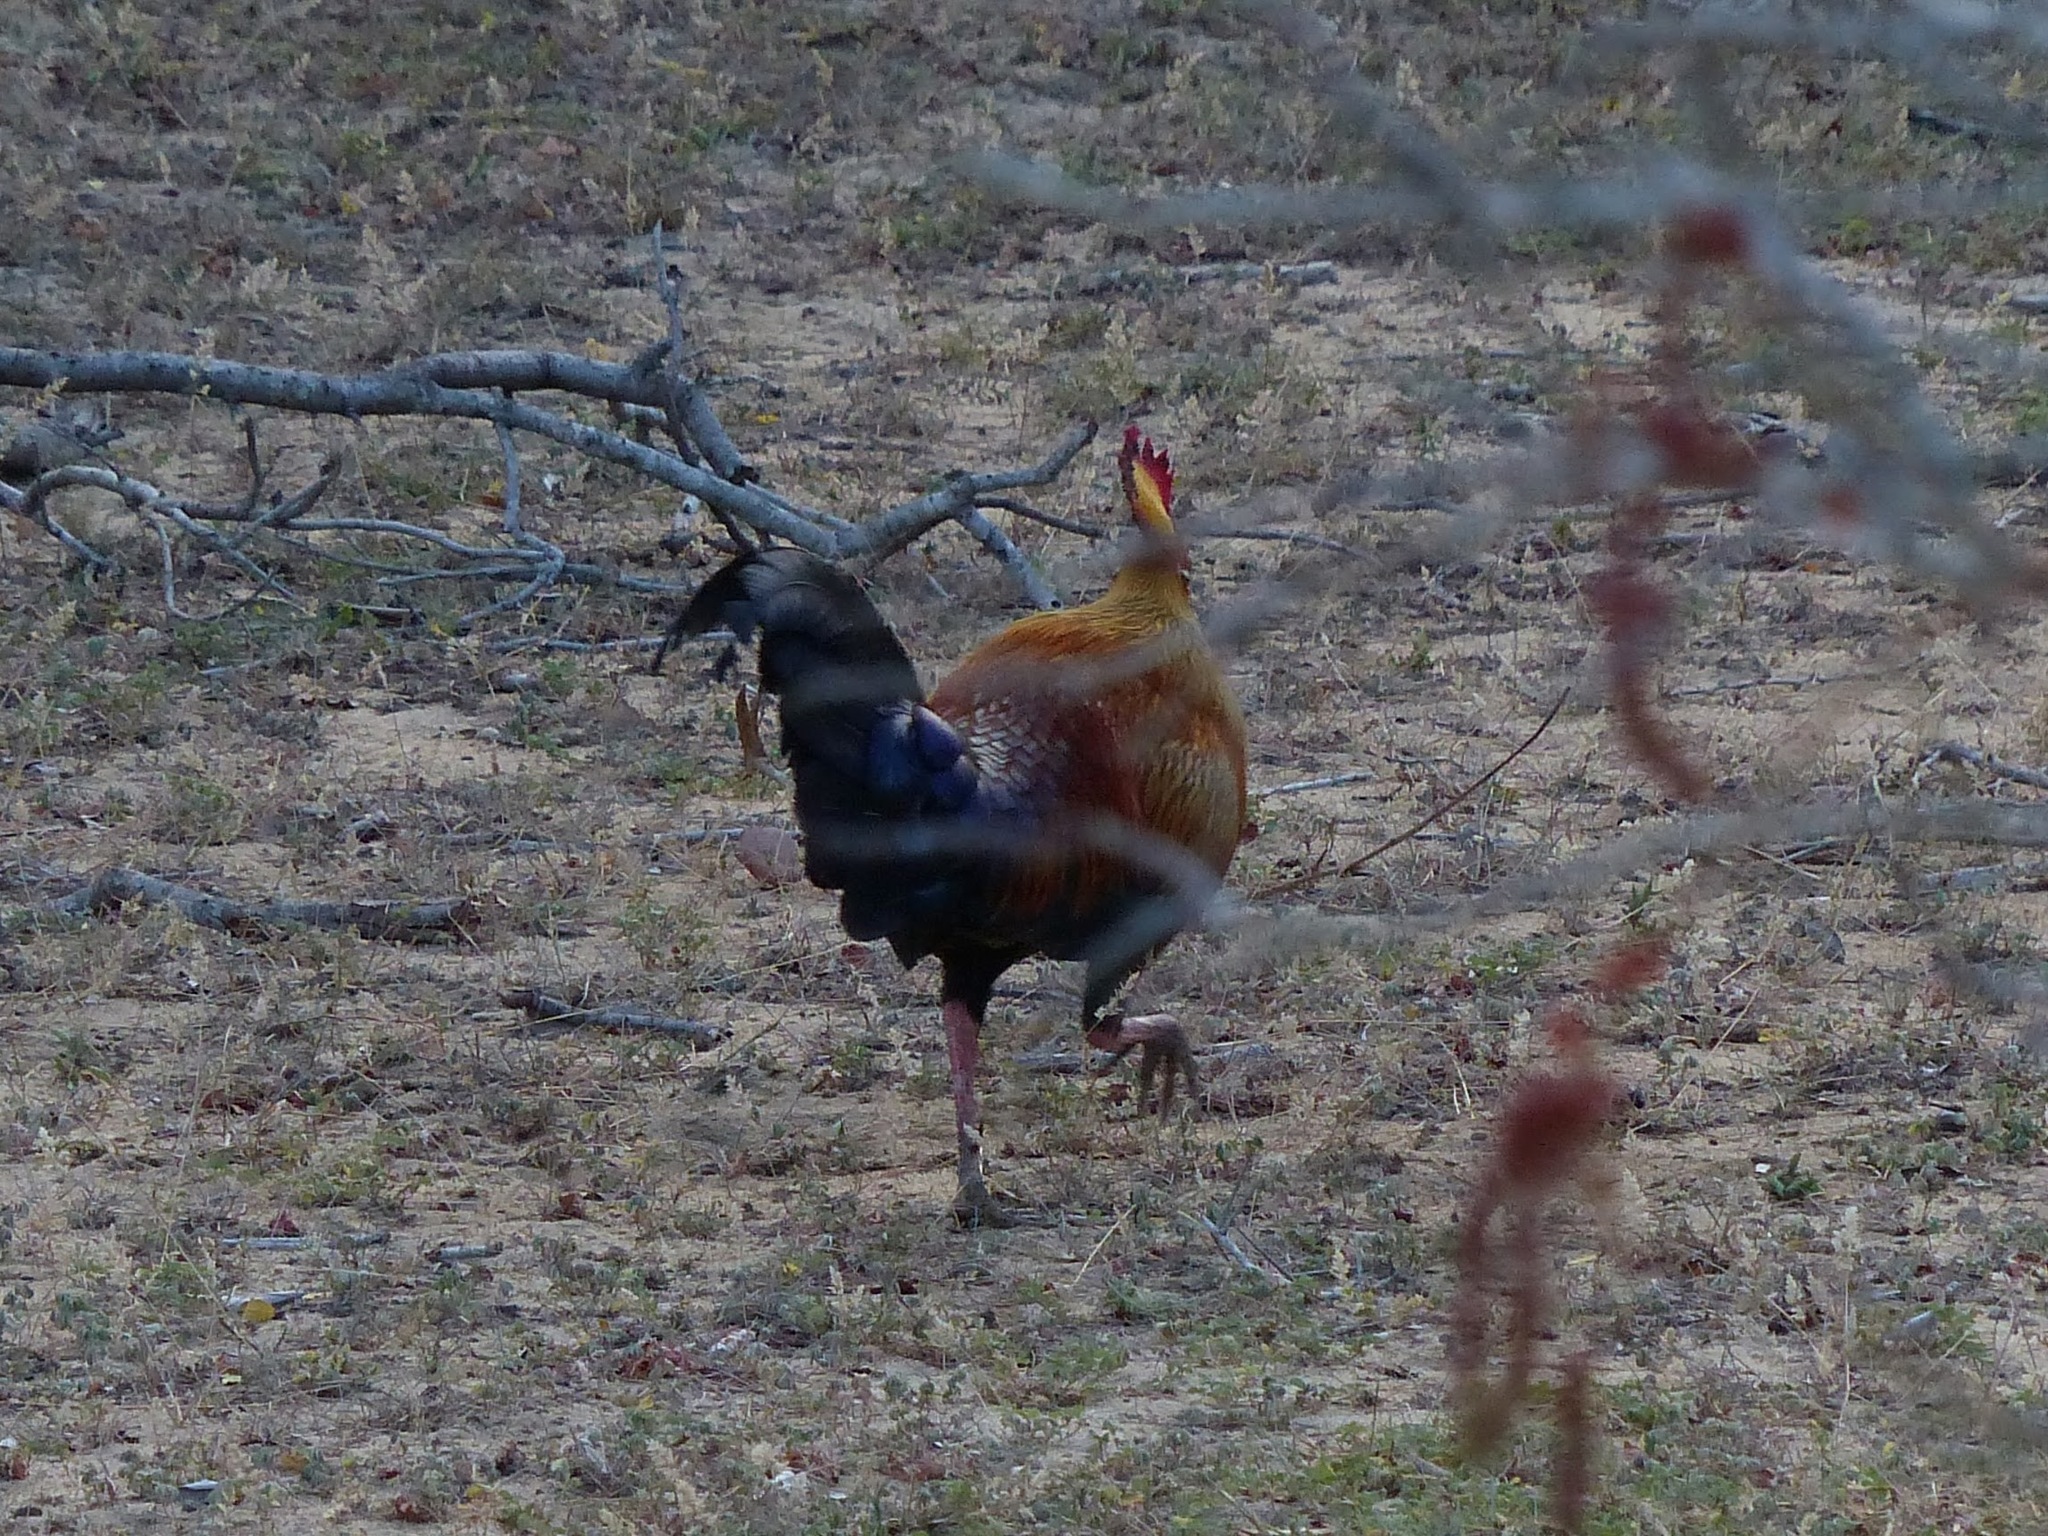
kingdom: Animalia
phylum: Chordata
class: Aves
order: Galliformes
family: Phasianidae
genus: Gallus
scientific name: Gallus lafayettii
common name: Sri lanka junglefowl
